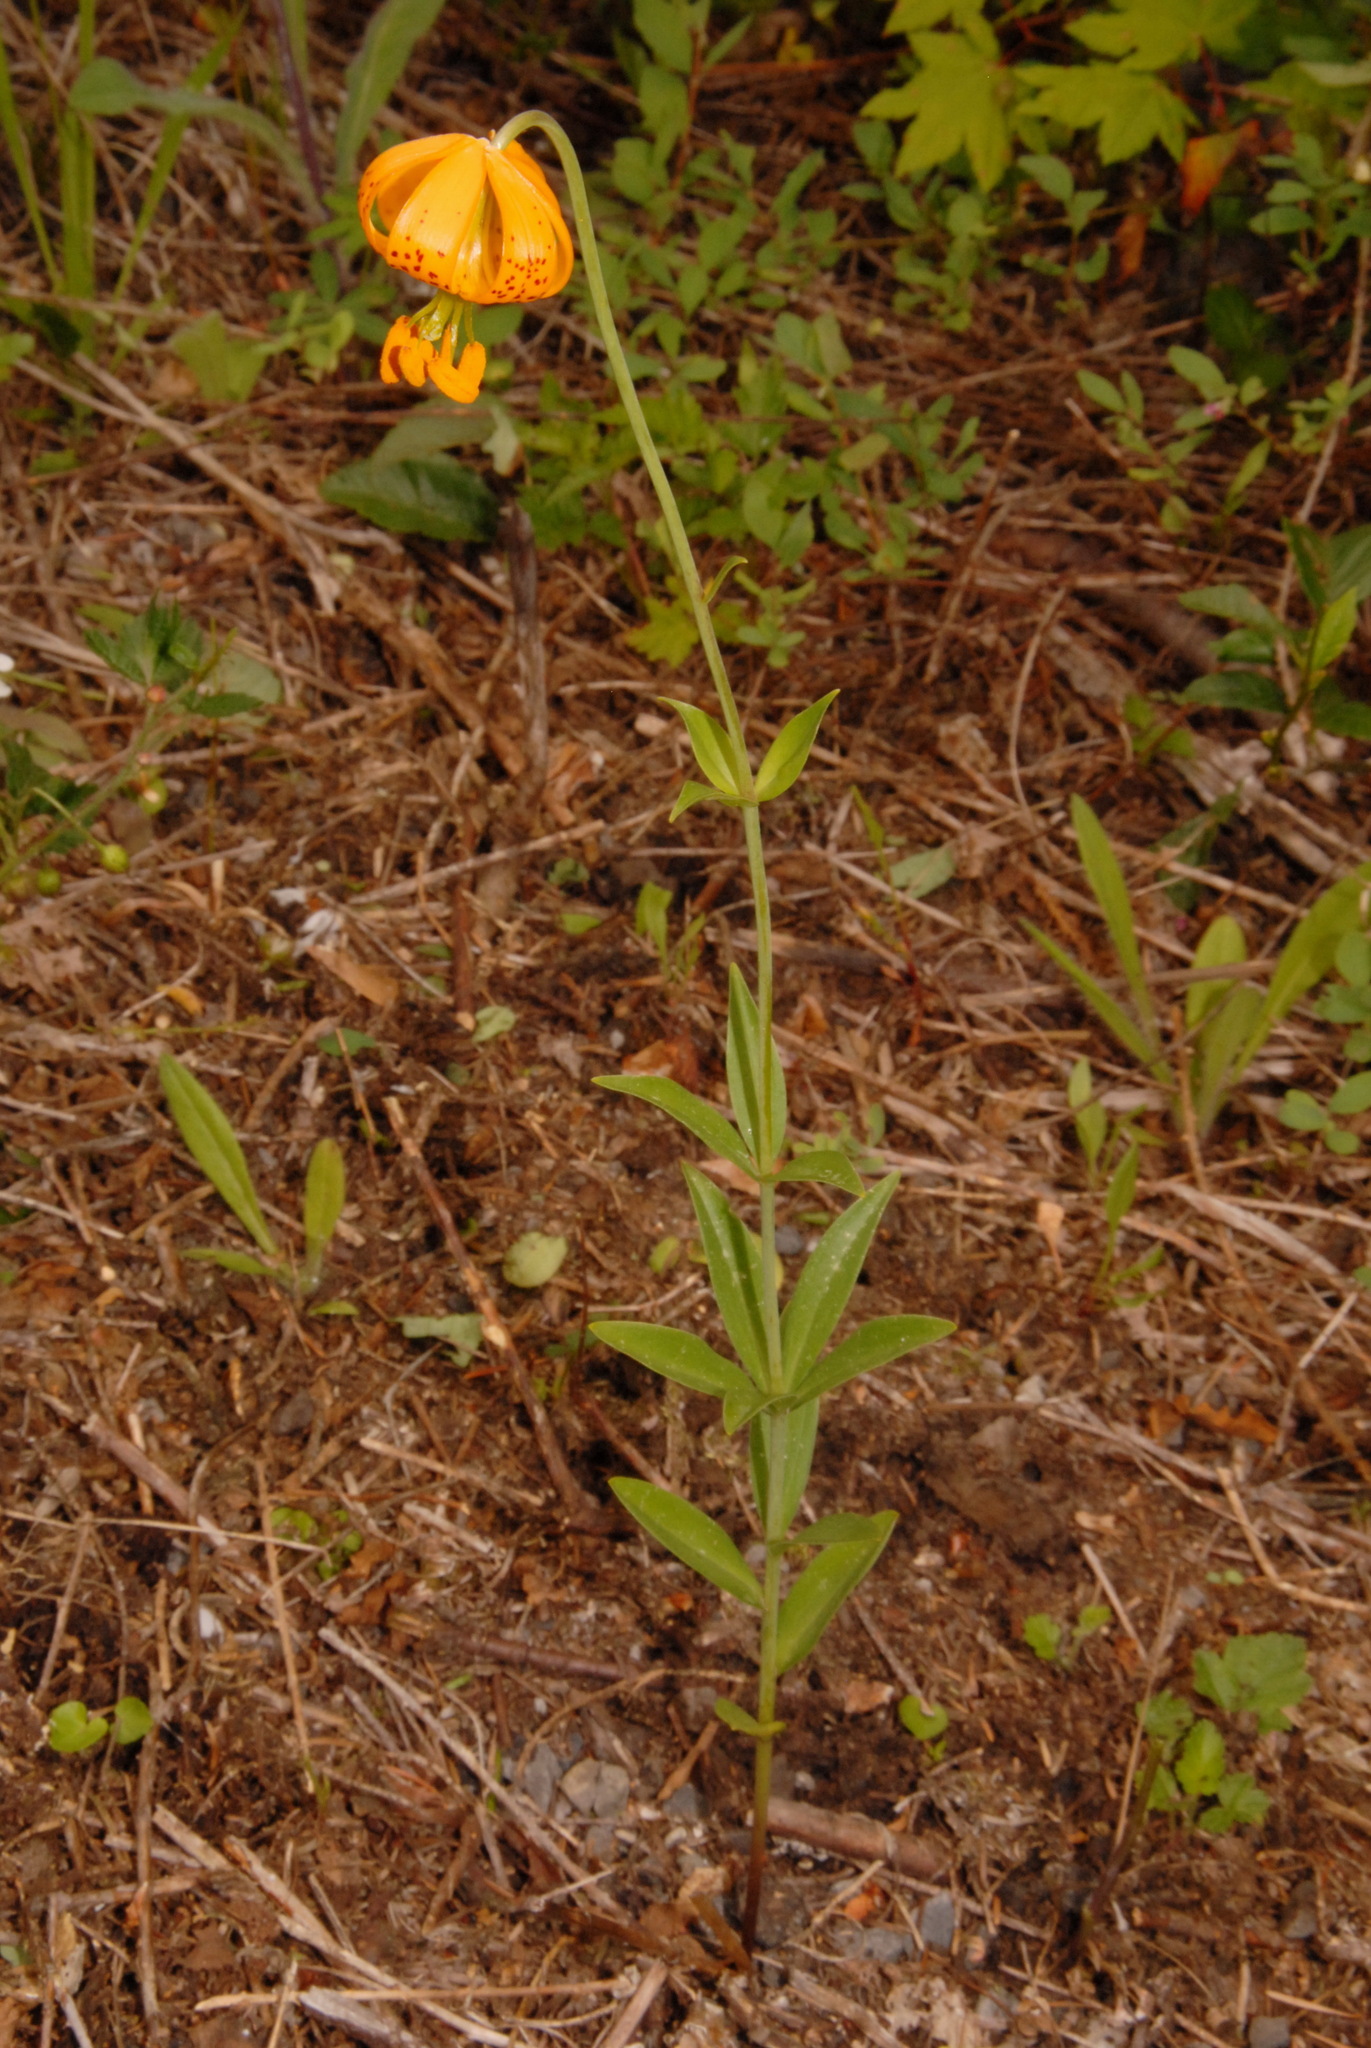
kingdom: Plantae
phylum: Tracheophyta
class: Liliopsida
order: Liliales
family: Liliaceae
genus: Lilium
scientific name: Lilium columbianum
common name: Columbia lily
